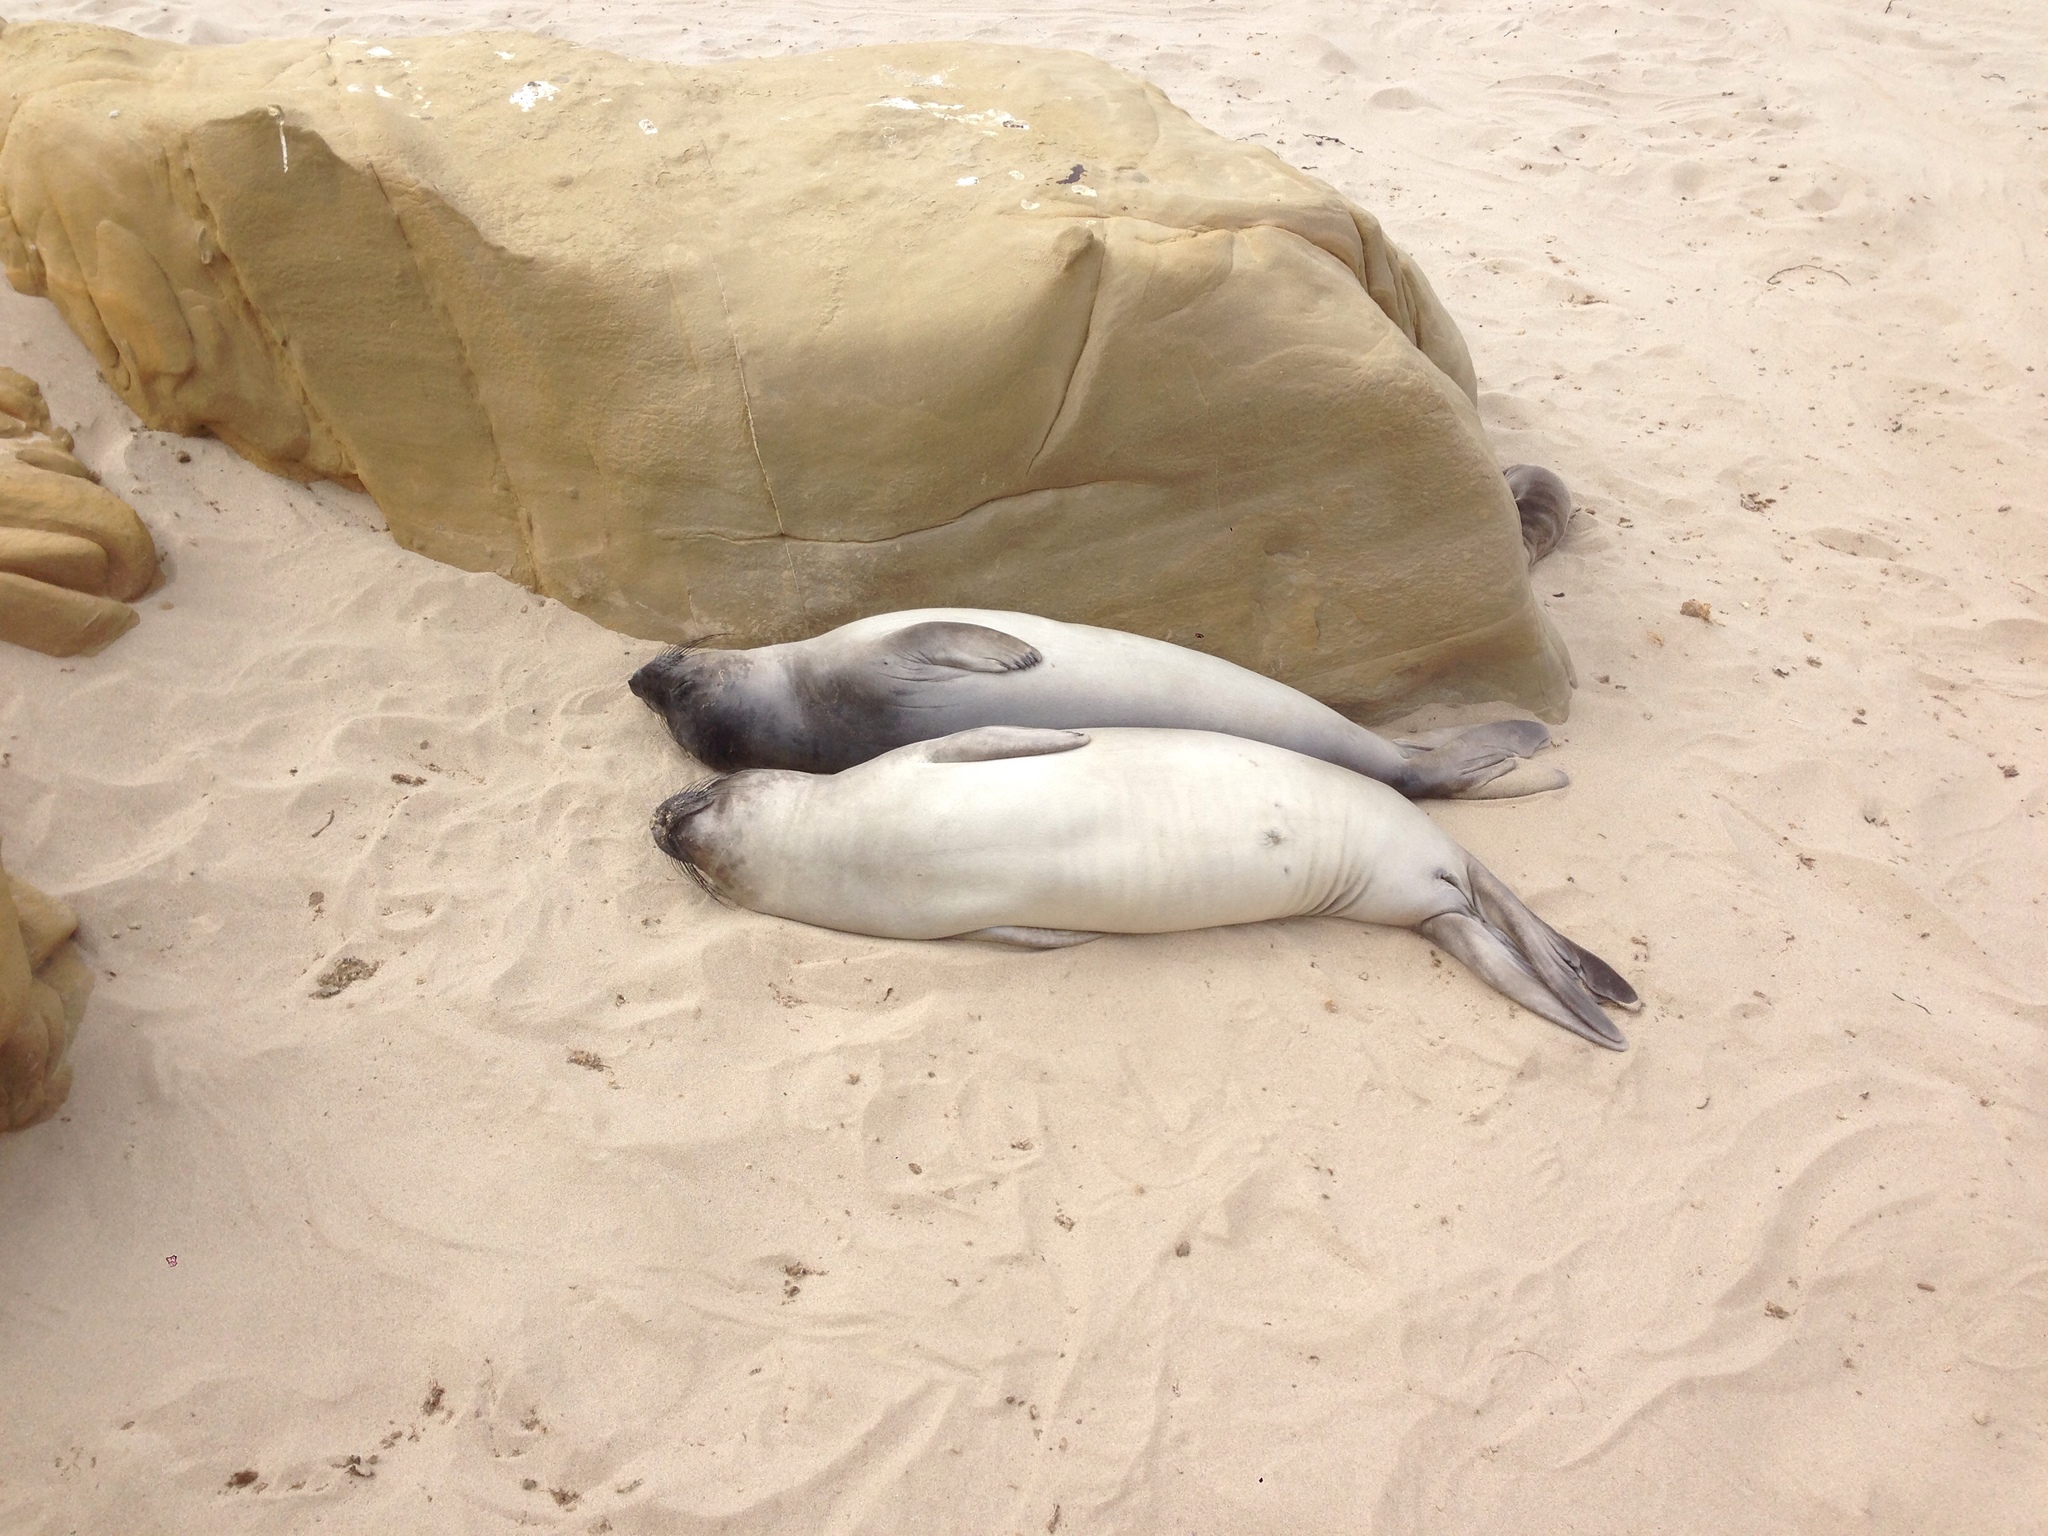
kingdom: Animalia
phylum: Chordata
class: Mammalia
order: Carnivora
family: Phocidae
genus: Mirounga
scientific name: Mirounga angustirostris
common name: Northern elephant seal
